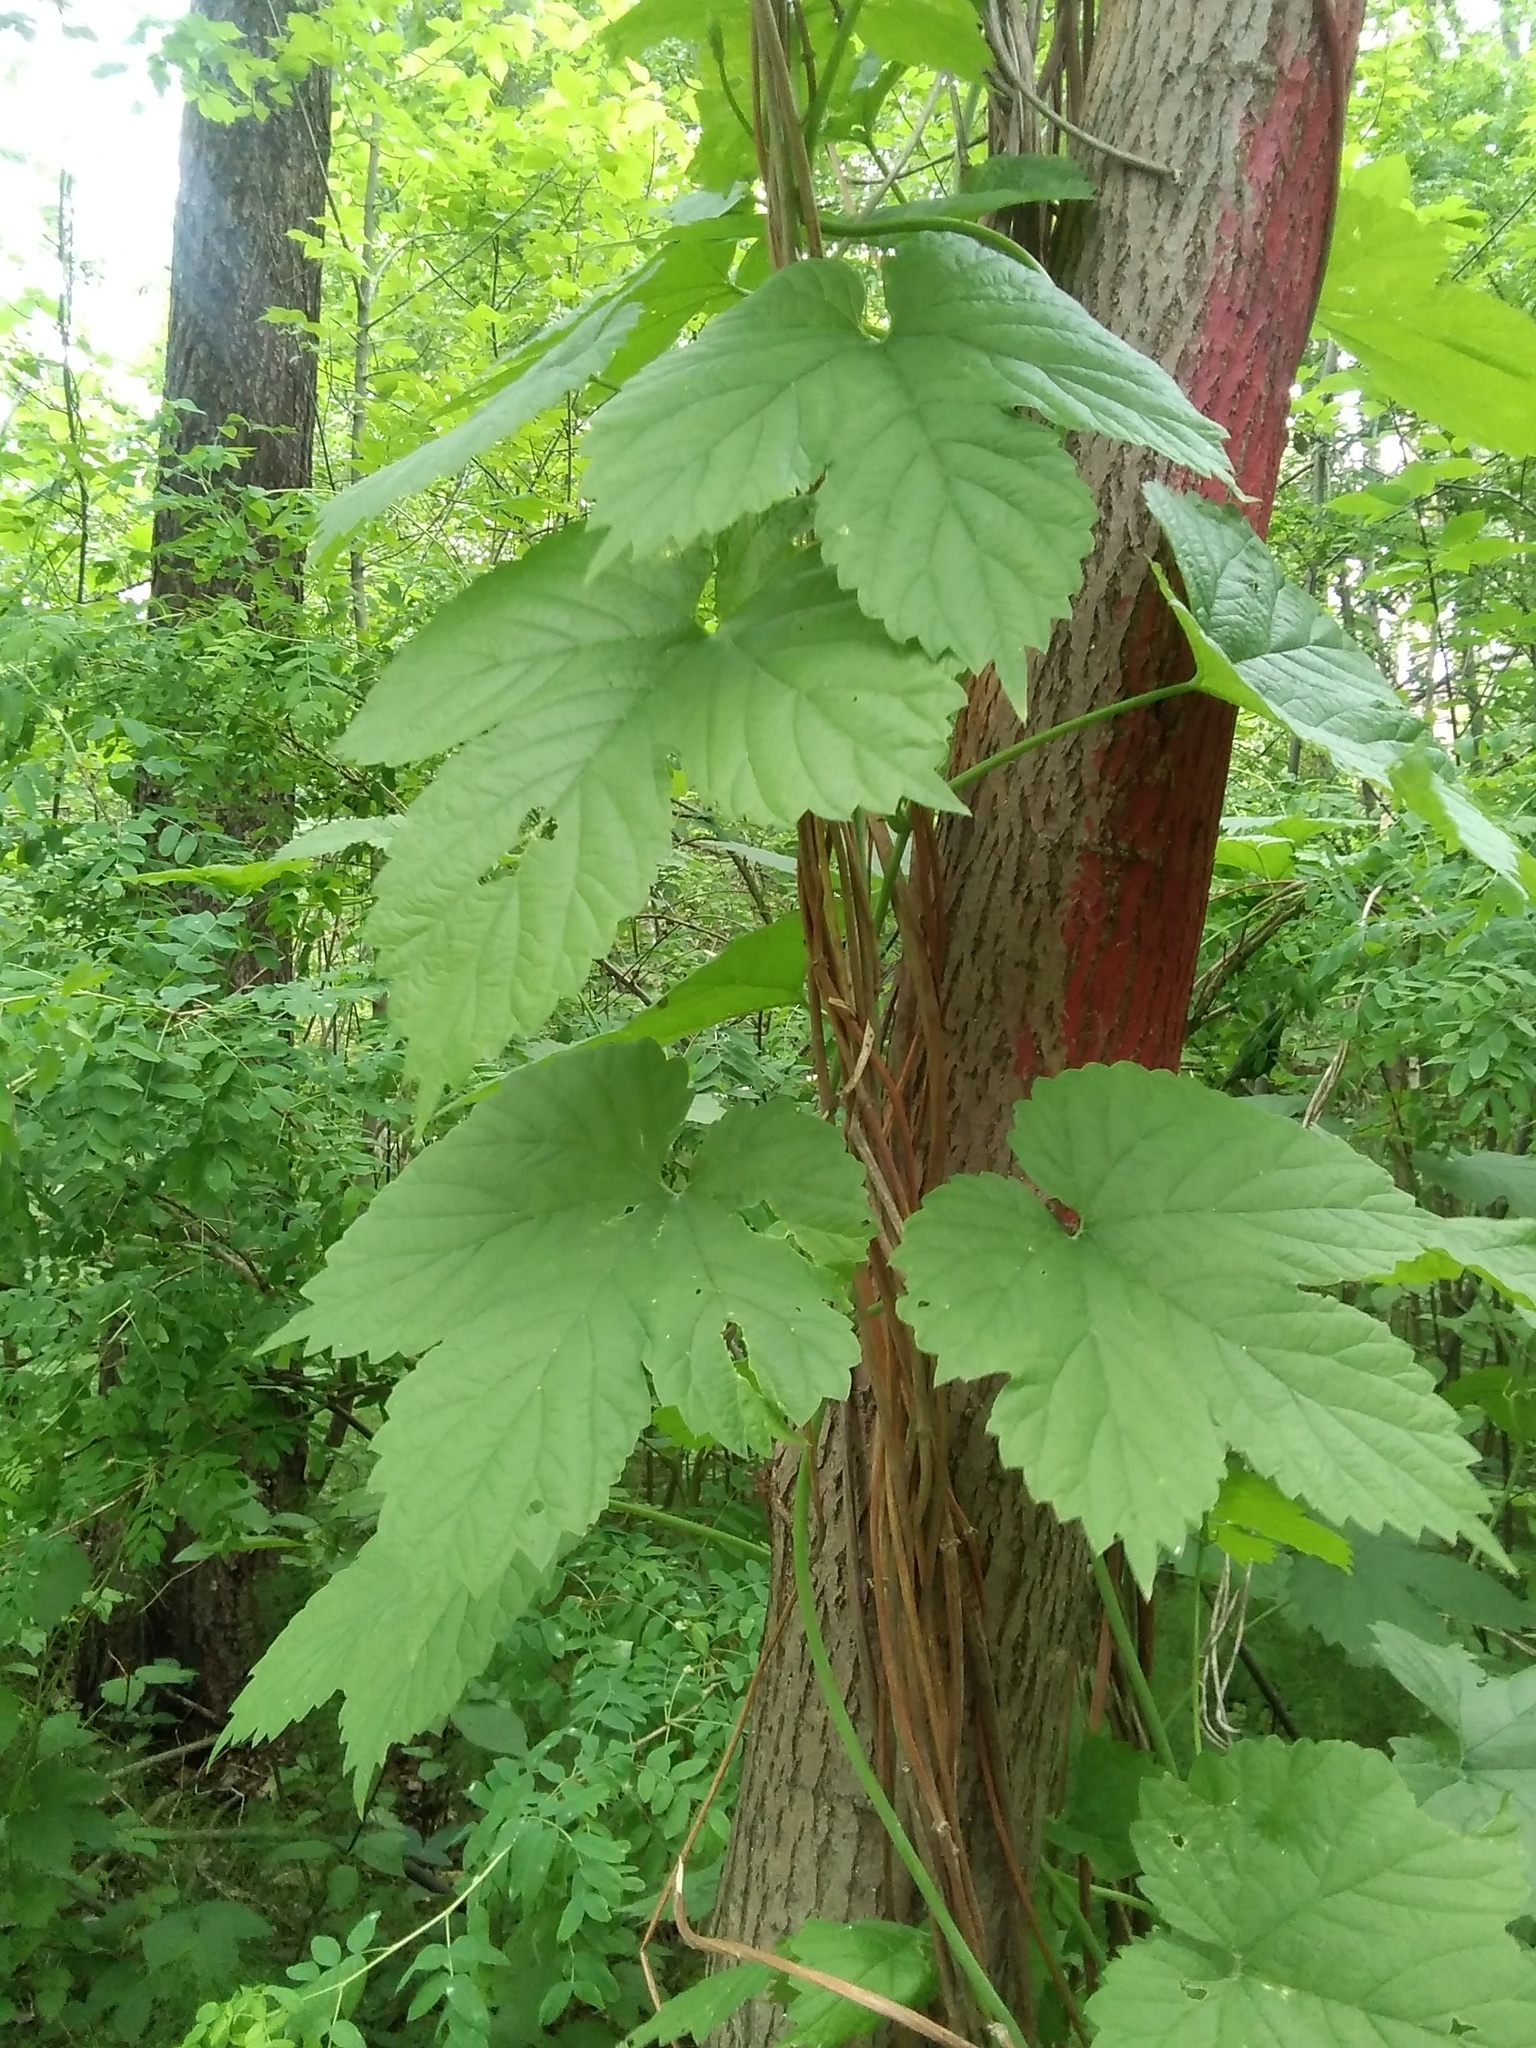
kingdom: Plantae
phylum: Tracheophyta
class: Magnoliopsida
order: Rosales
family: Cannabaceae
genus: Humulus
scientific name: Humulus lupulus
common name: Hop
